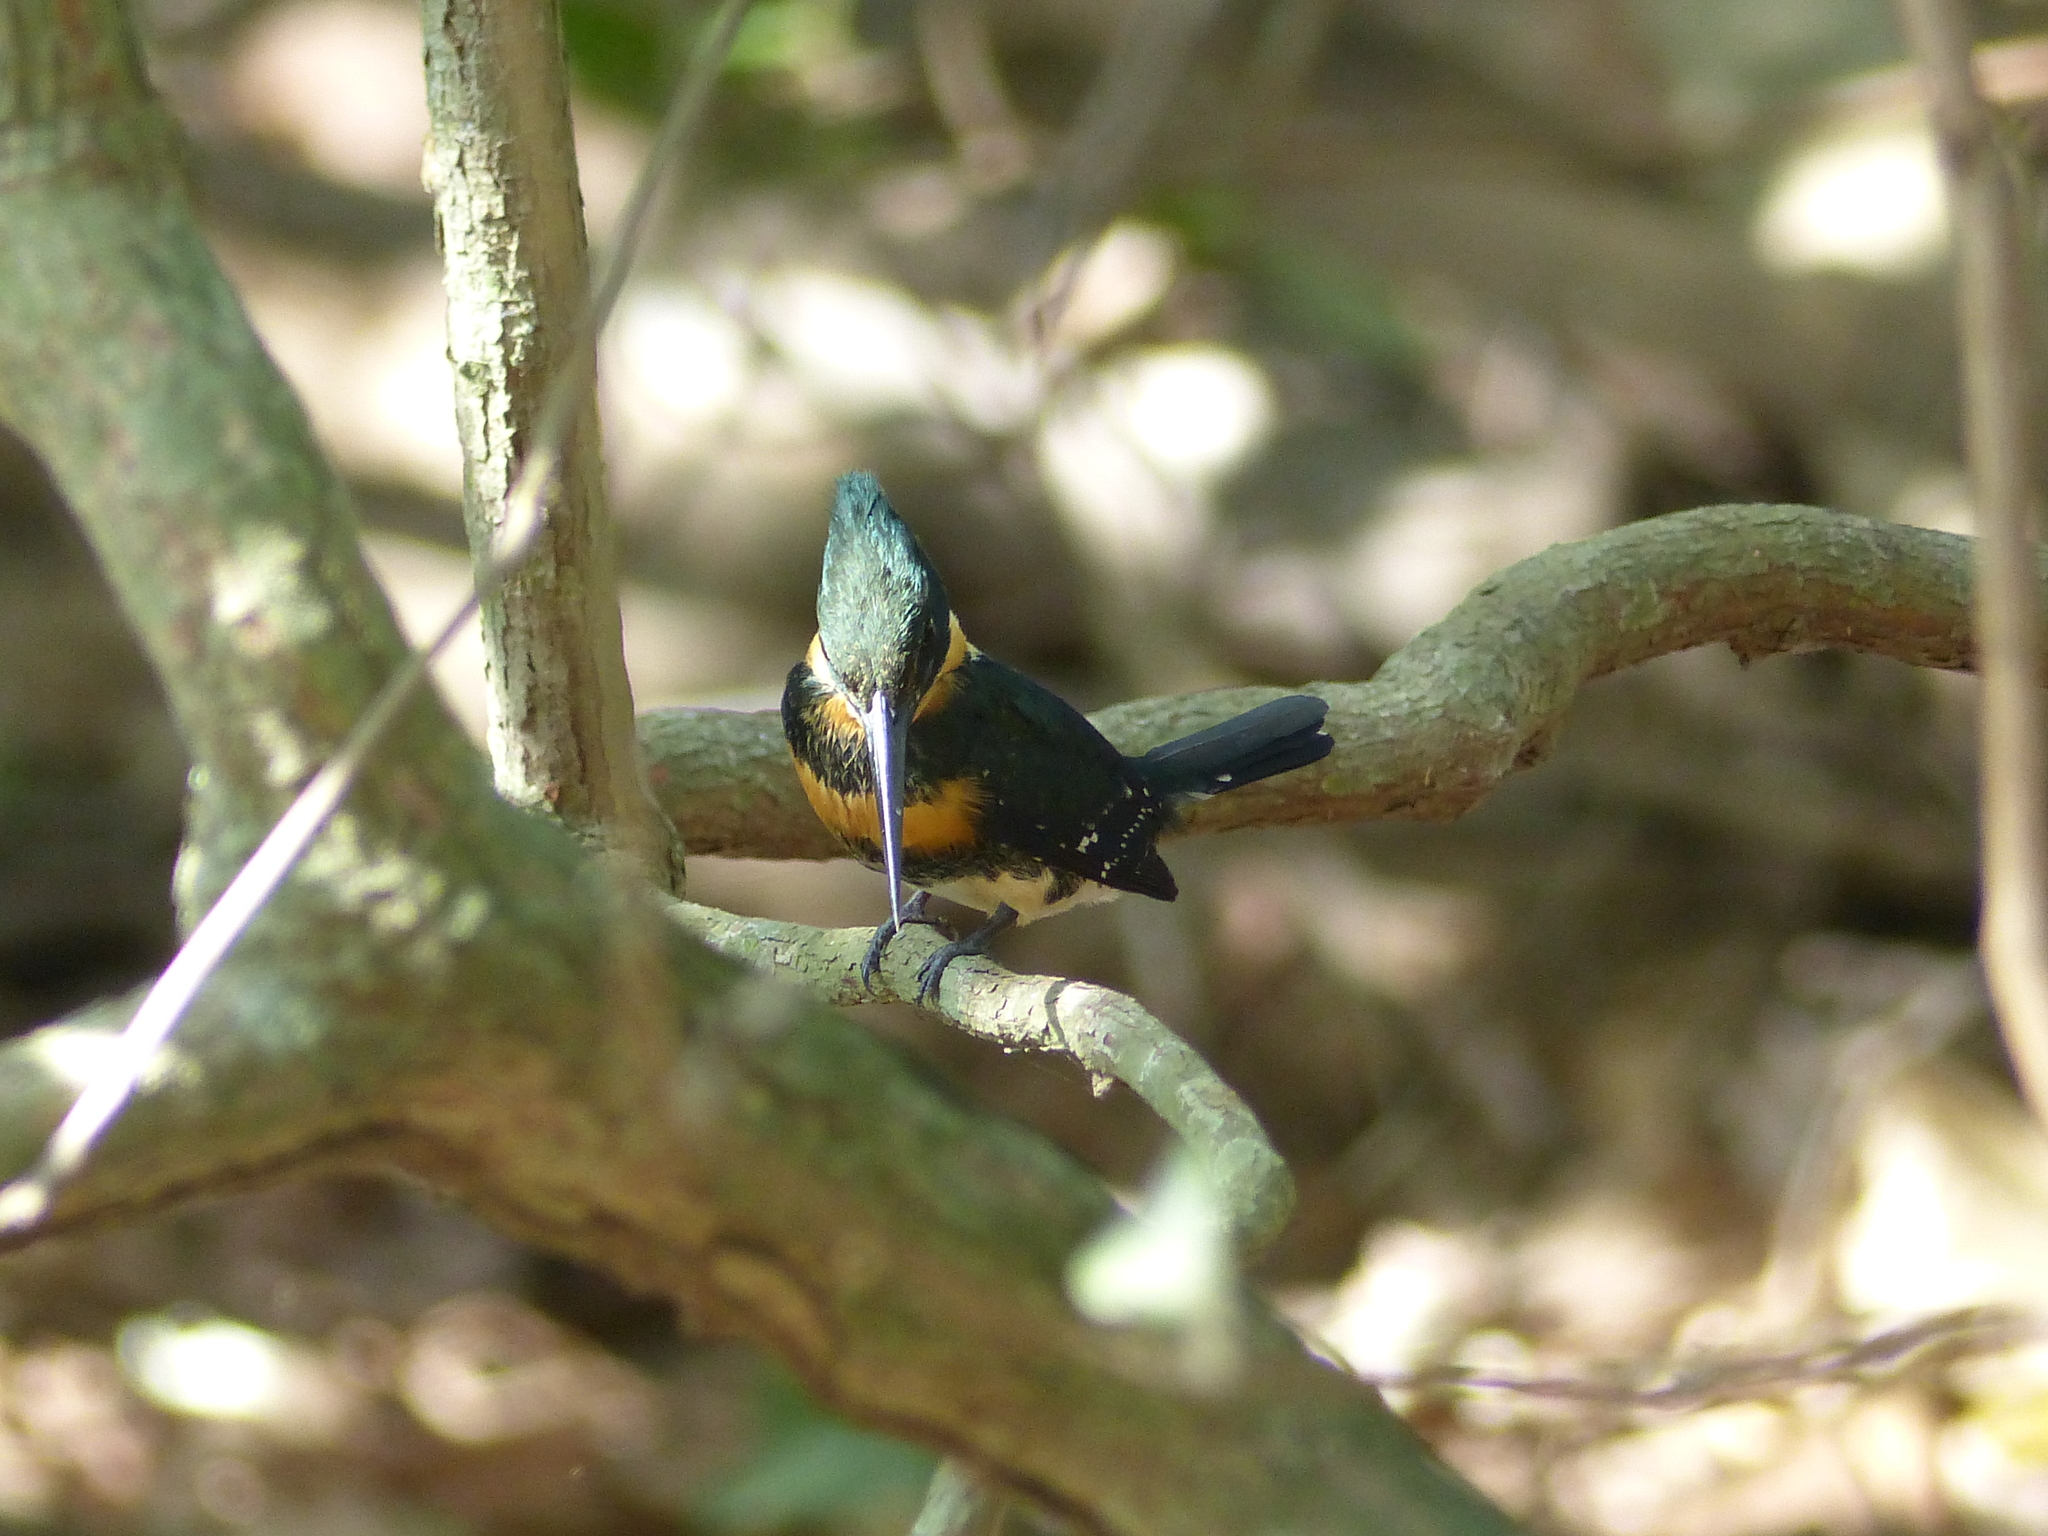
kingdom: Animalia
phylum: Chordata
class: Aves
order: Coraciiformes
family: Alcedinidae
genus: Chloroceryle
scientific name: Chloroceryle americana
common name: Green kingfisher
